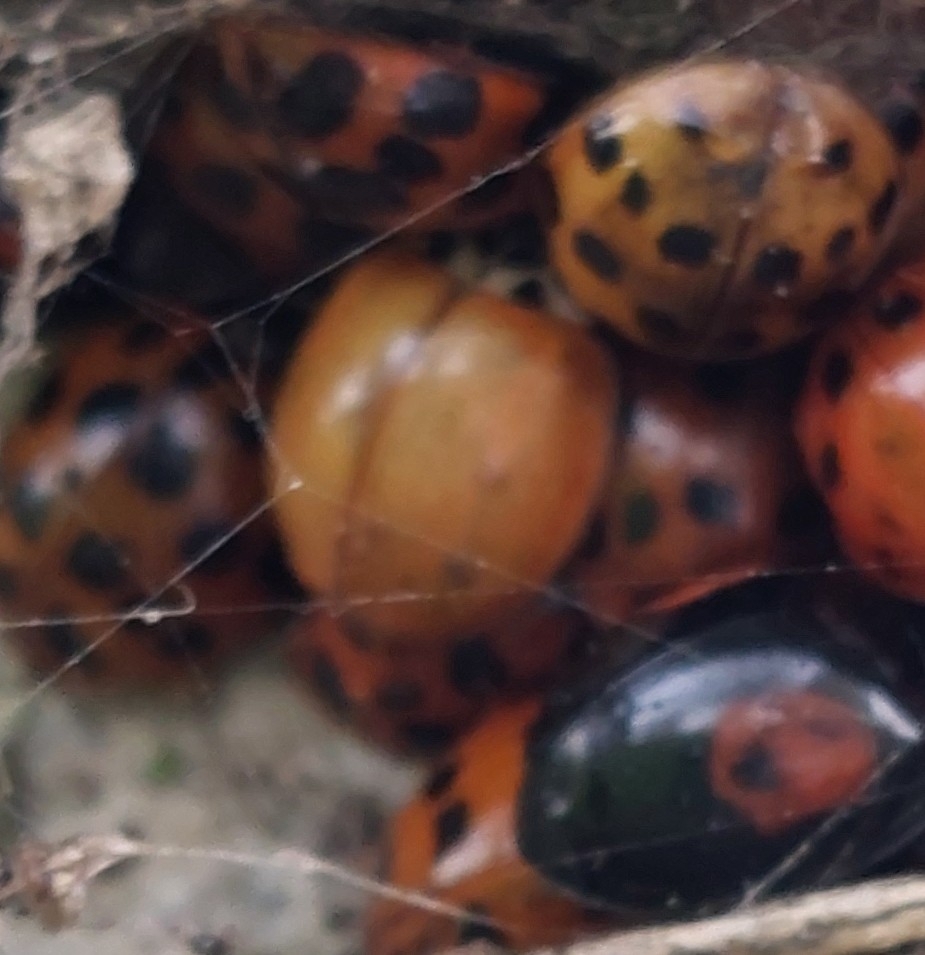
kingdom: Animalia
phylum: Arthropoda
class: Insecta
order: Coleoptera
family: Coccinellidae
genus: Harmonia
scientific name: Harmonia axyridis
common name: Harlequin ladybird
